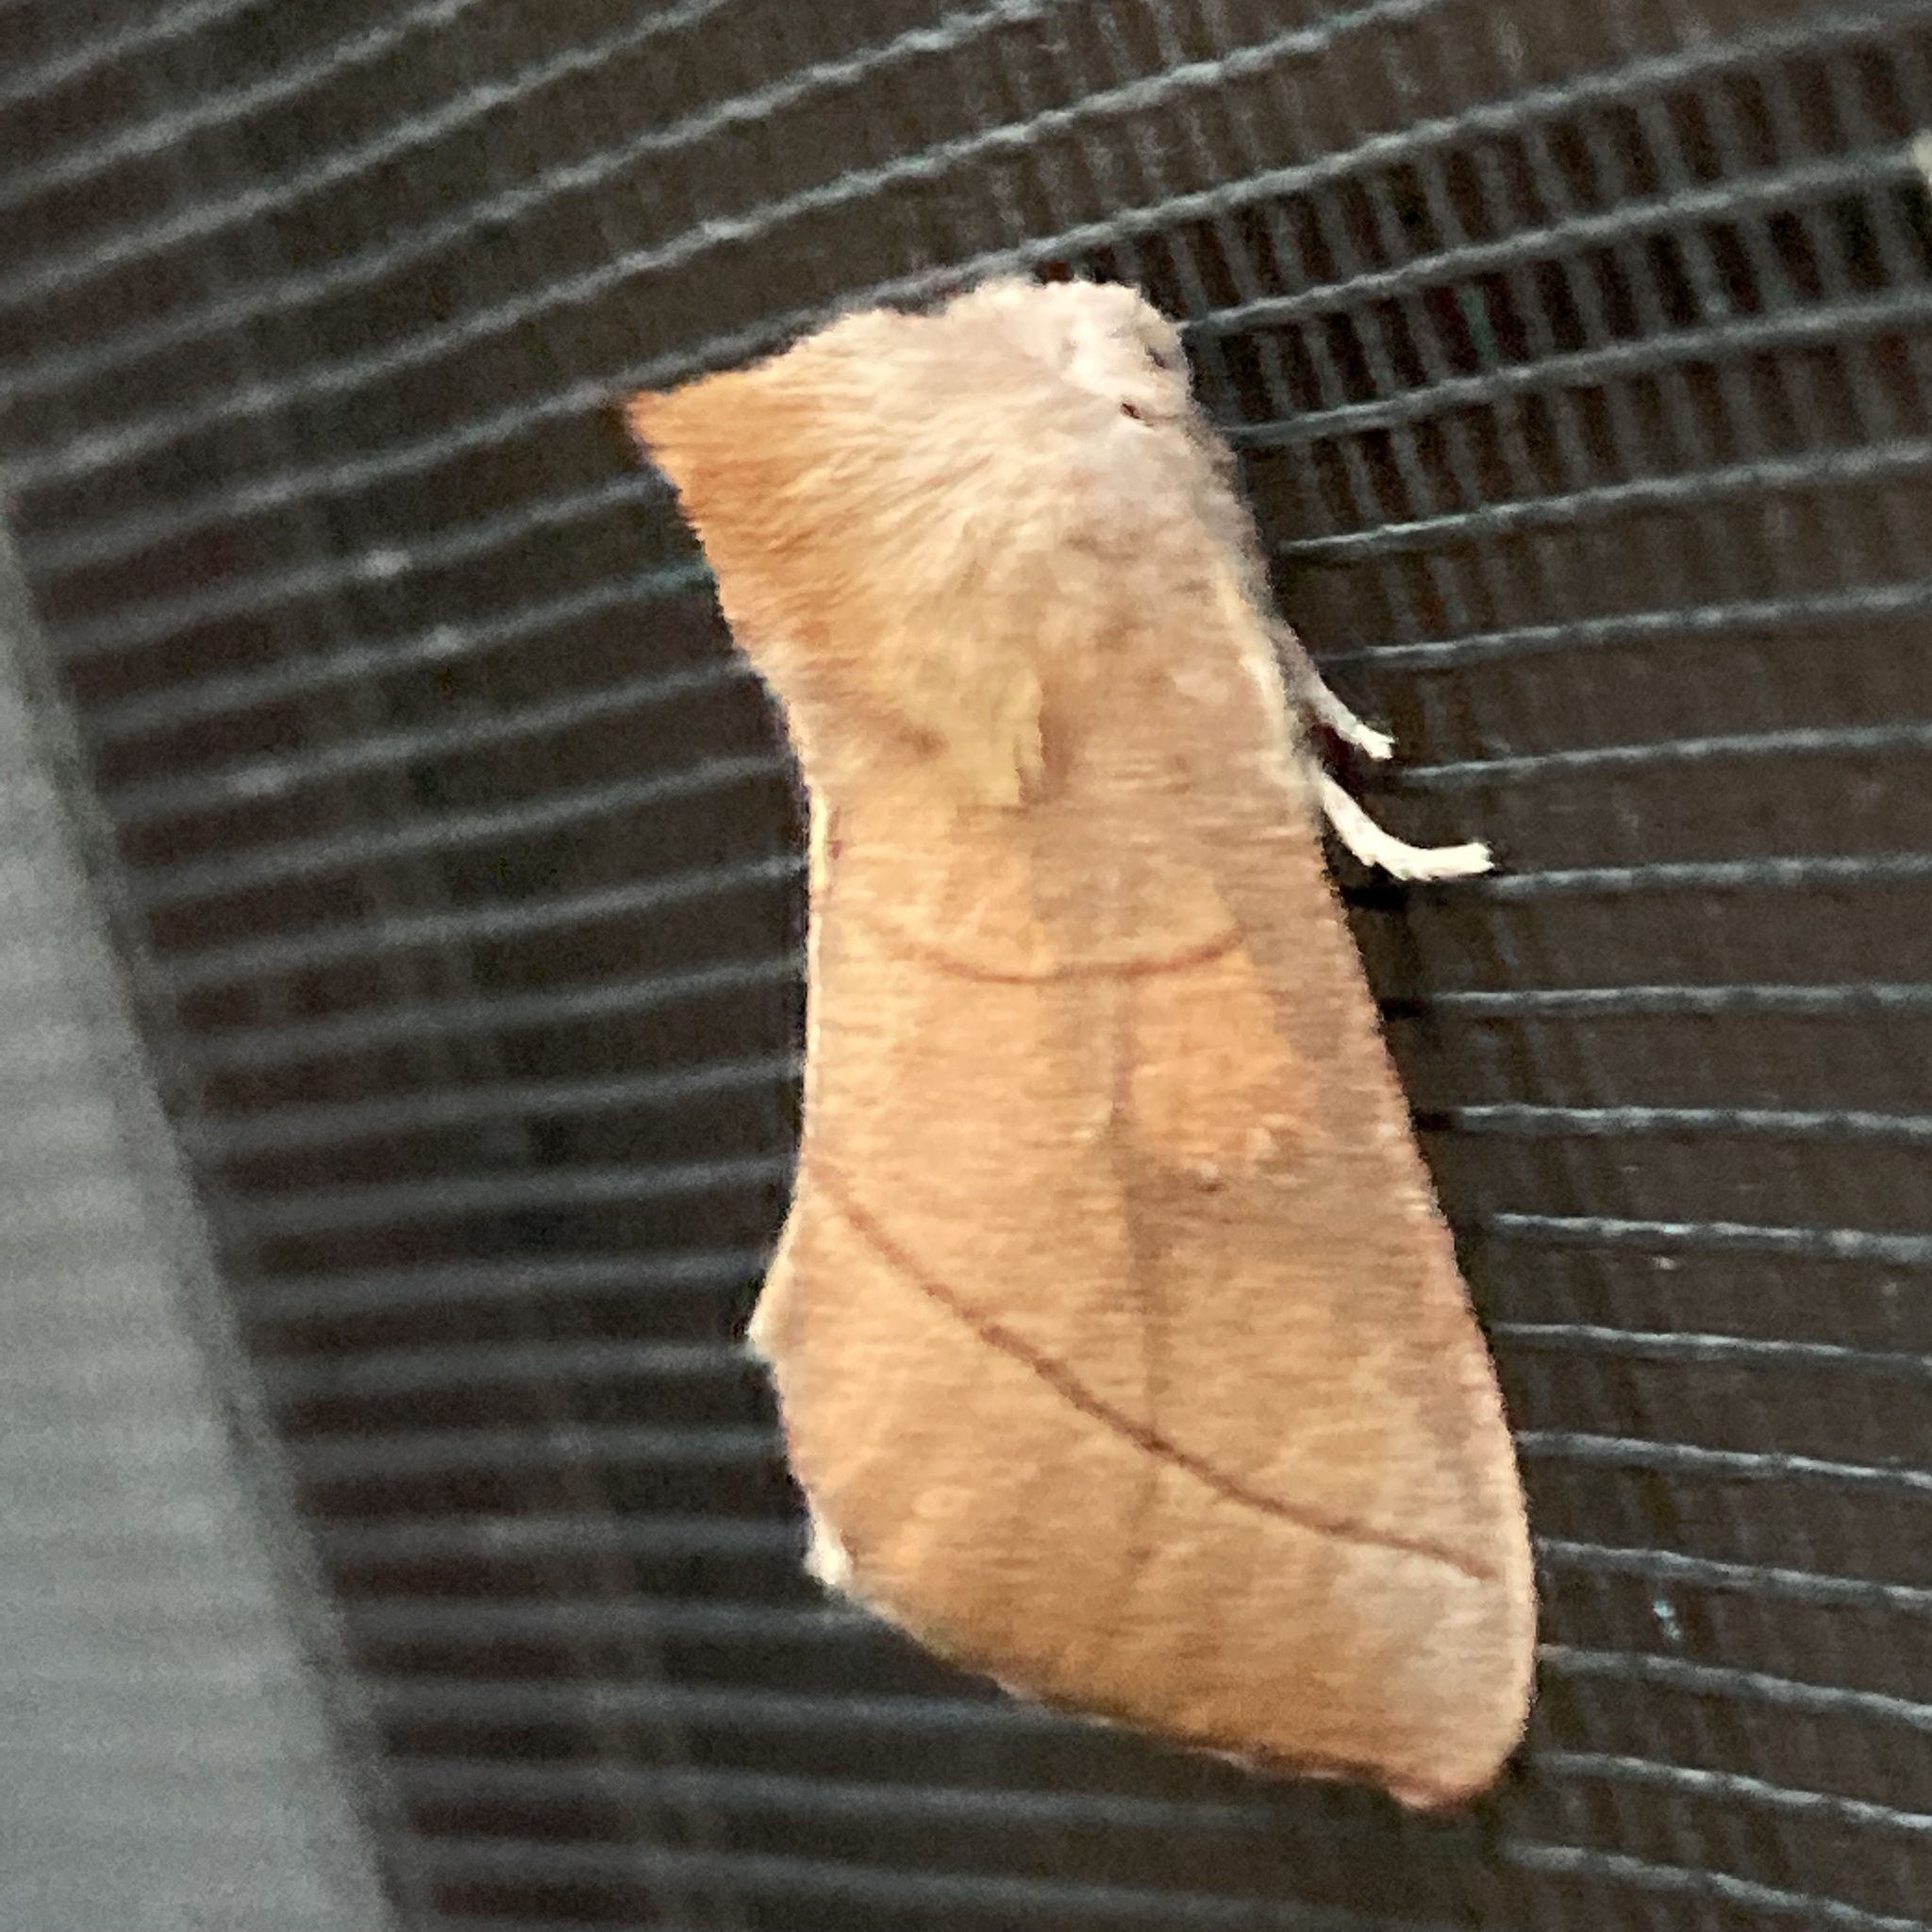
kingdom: Animalia
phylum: Arthropoda
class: Insecta
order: Lepidoptera
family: Notodontidae
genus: Nadata
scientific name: Nadata gibbosa
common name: White-dotted prominent
